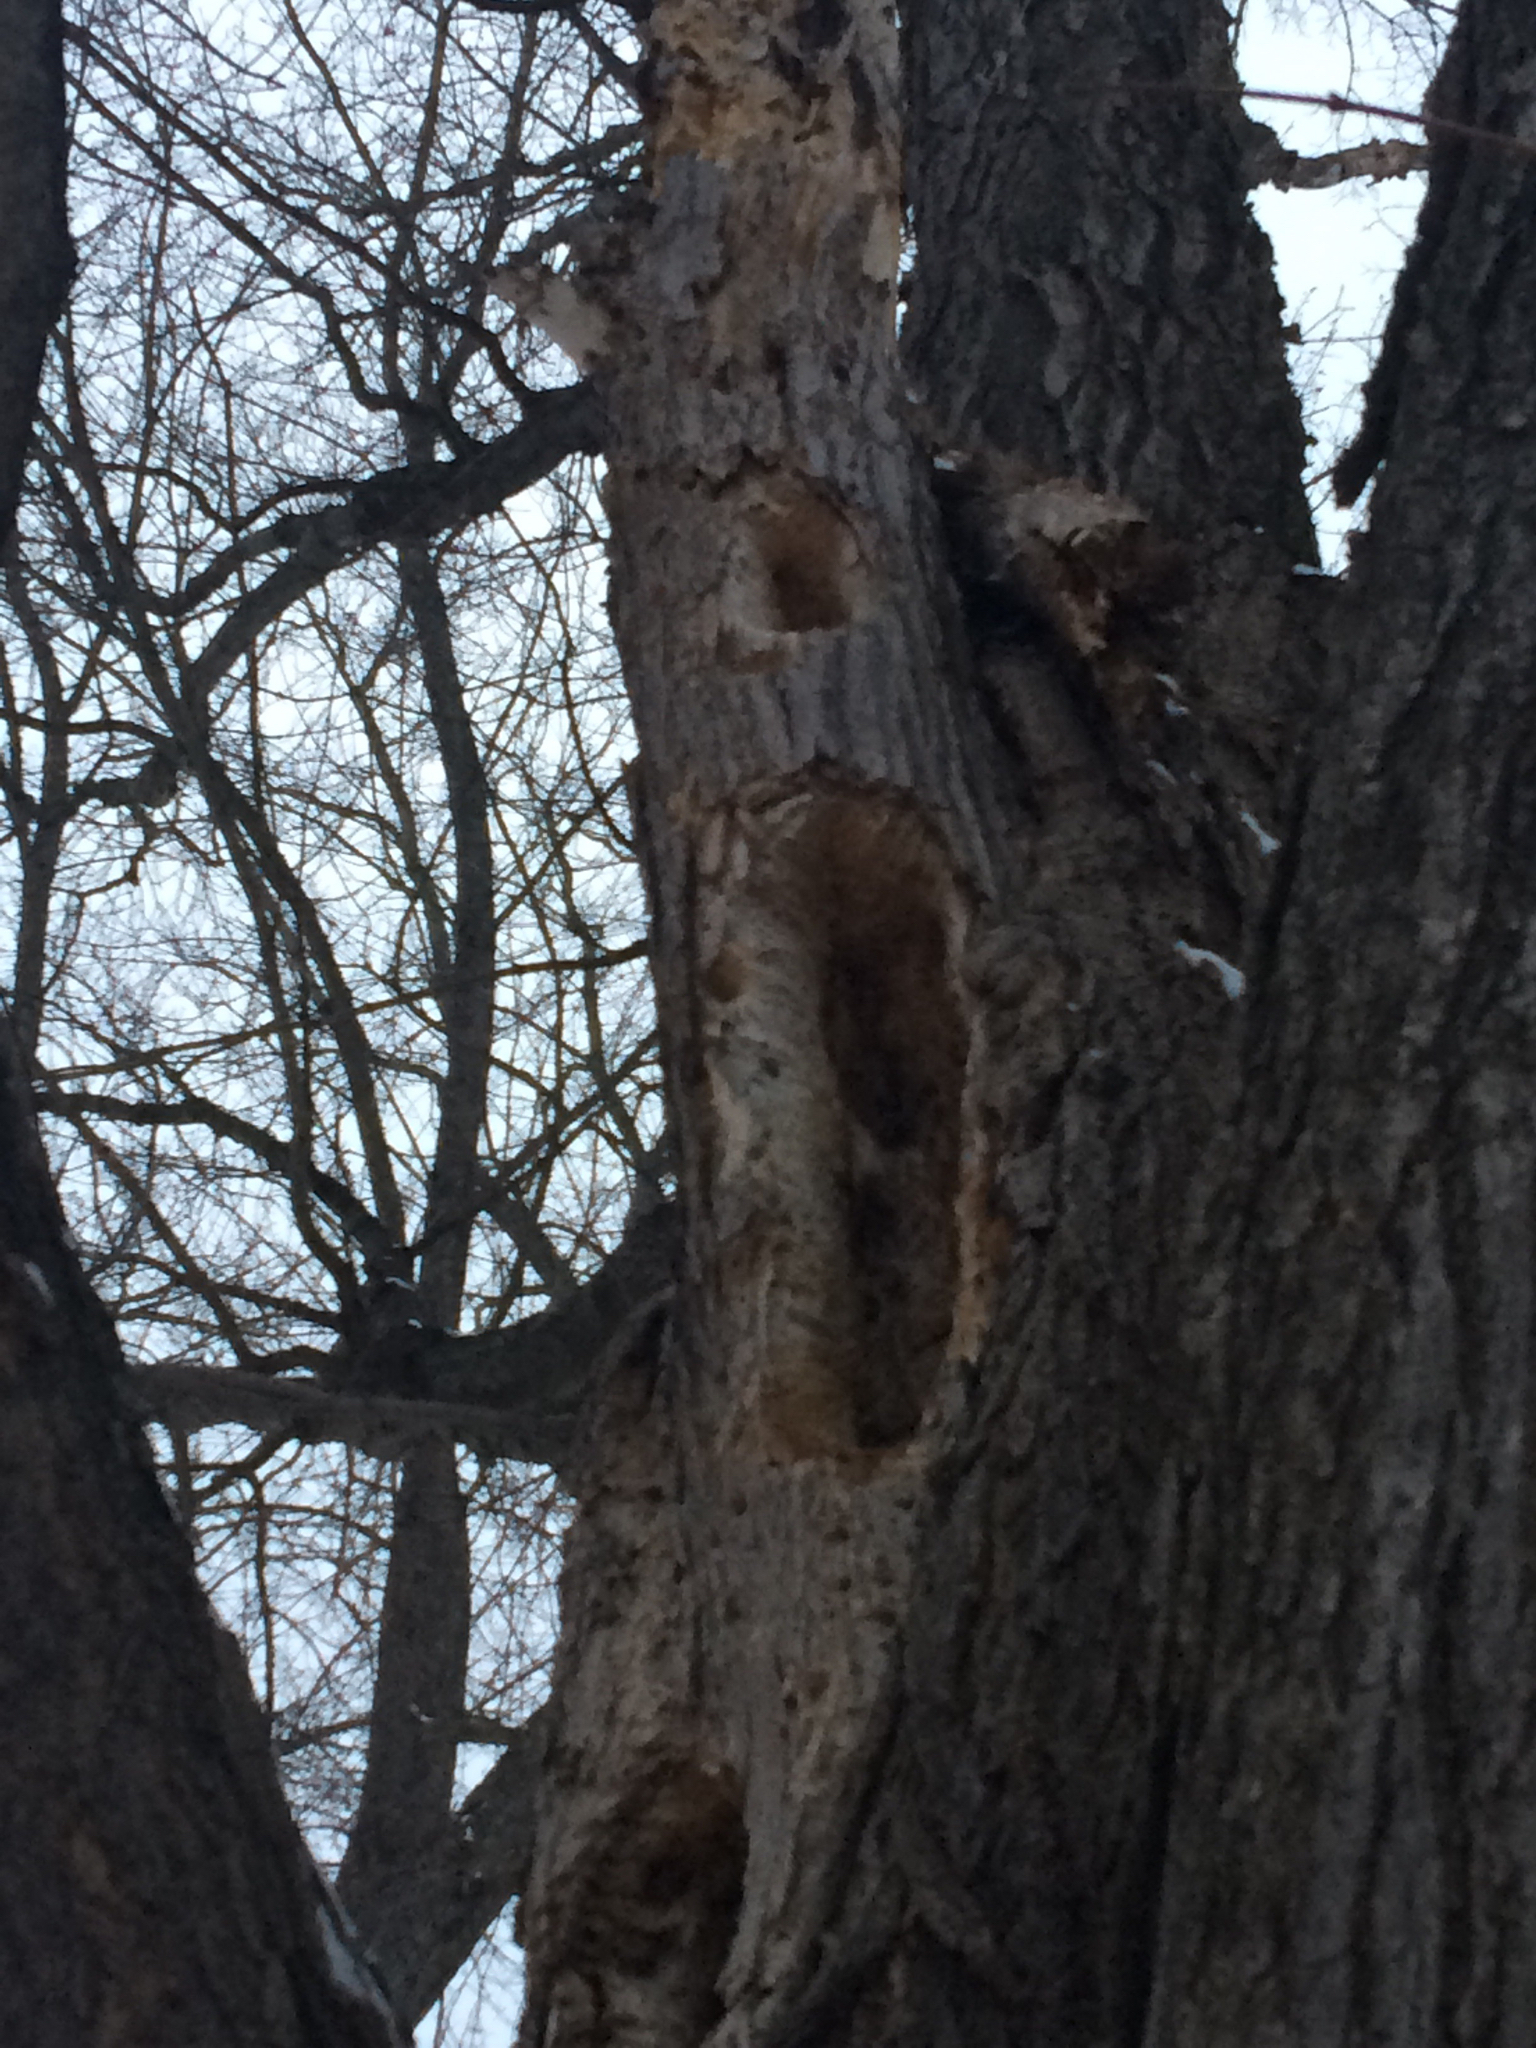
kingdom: Animalia
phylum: Chordata
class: Aves
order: Piciformes
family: Picidae
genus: Dryocopus
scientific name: Dryocopus pileatus
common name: Pileated woodpecker
